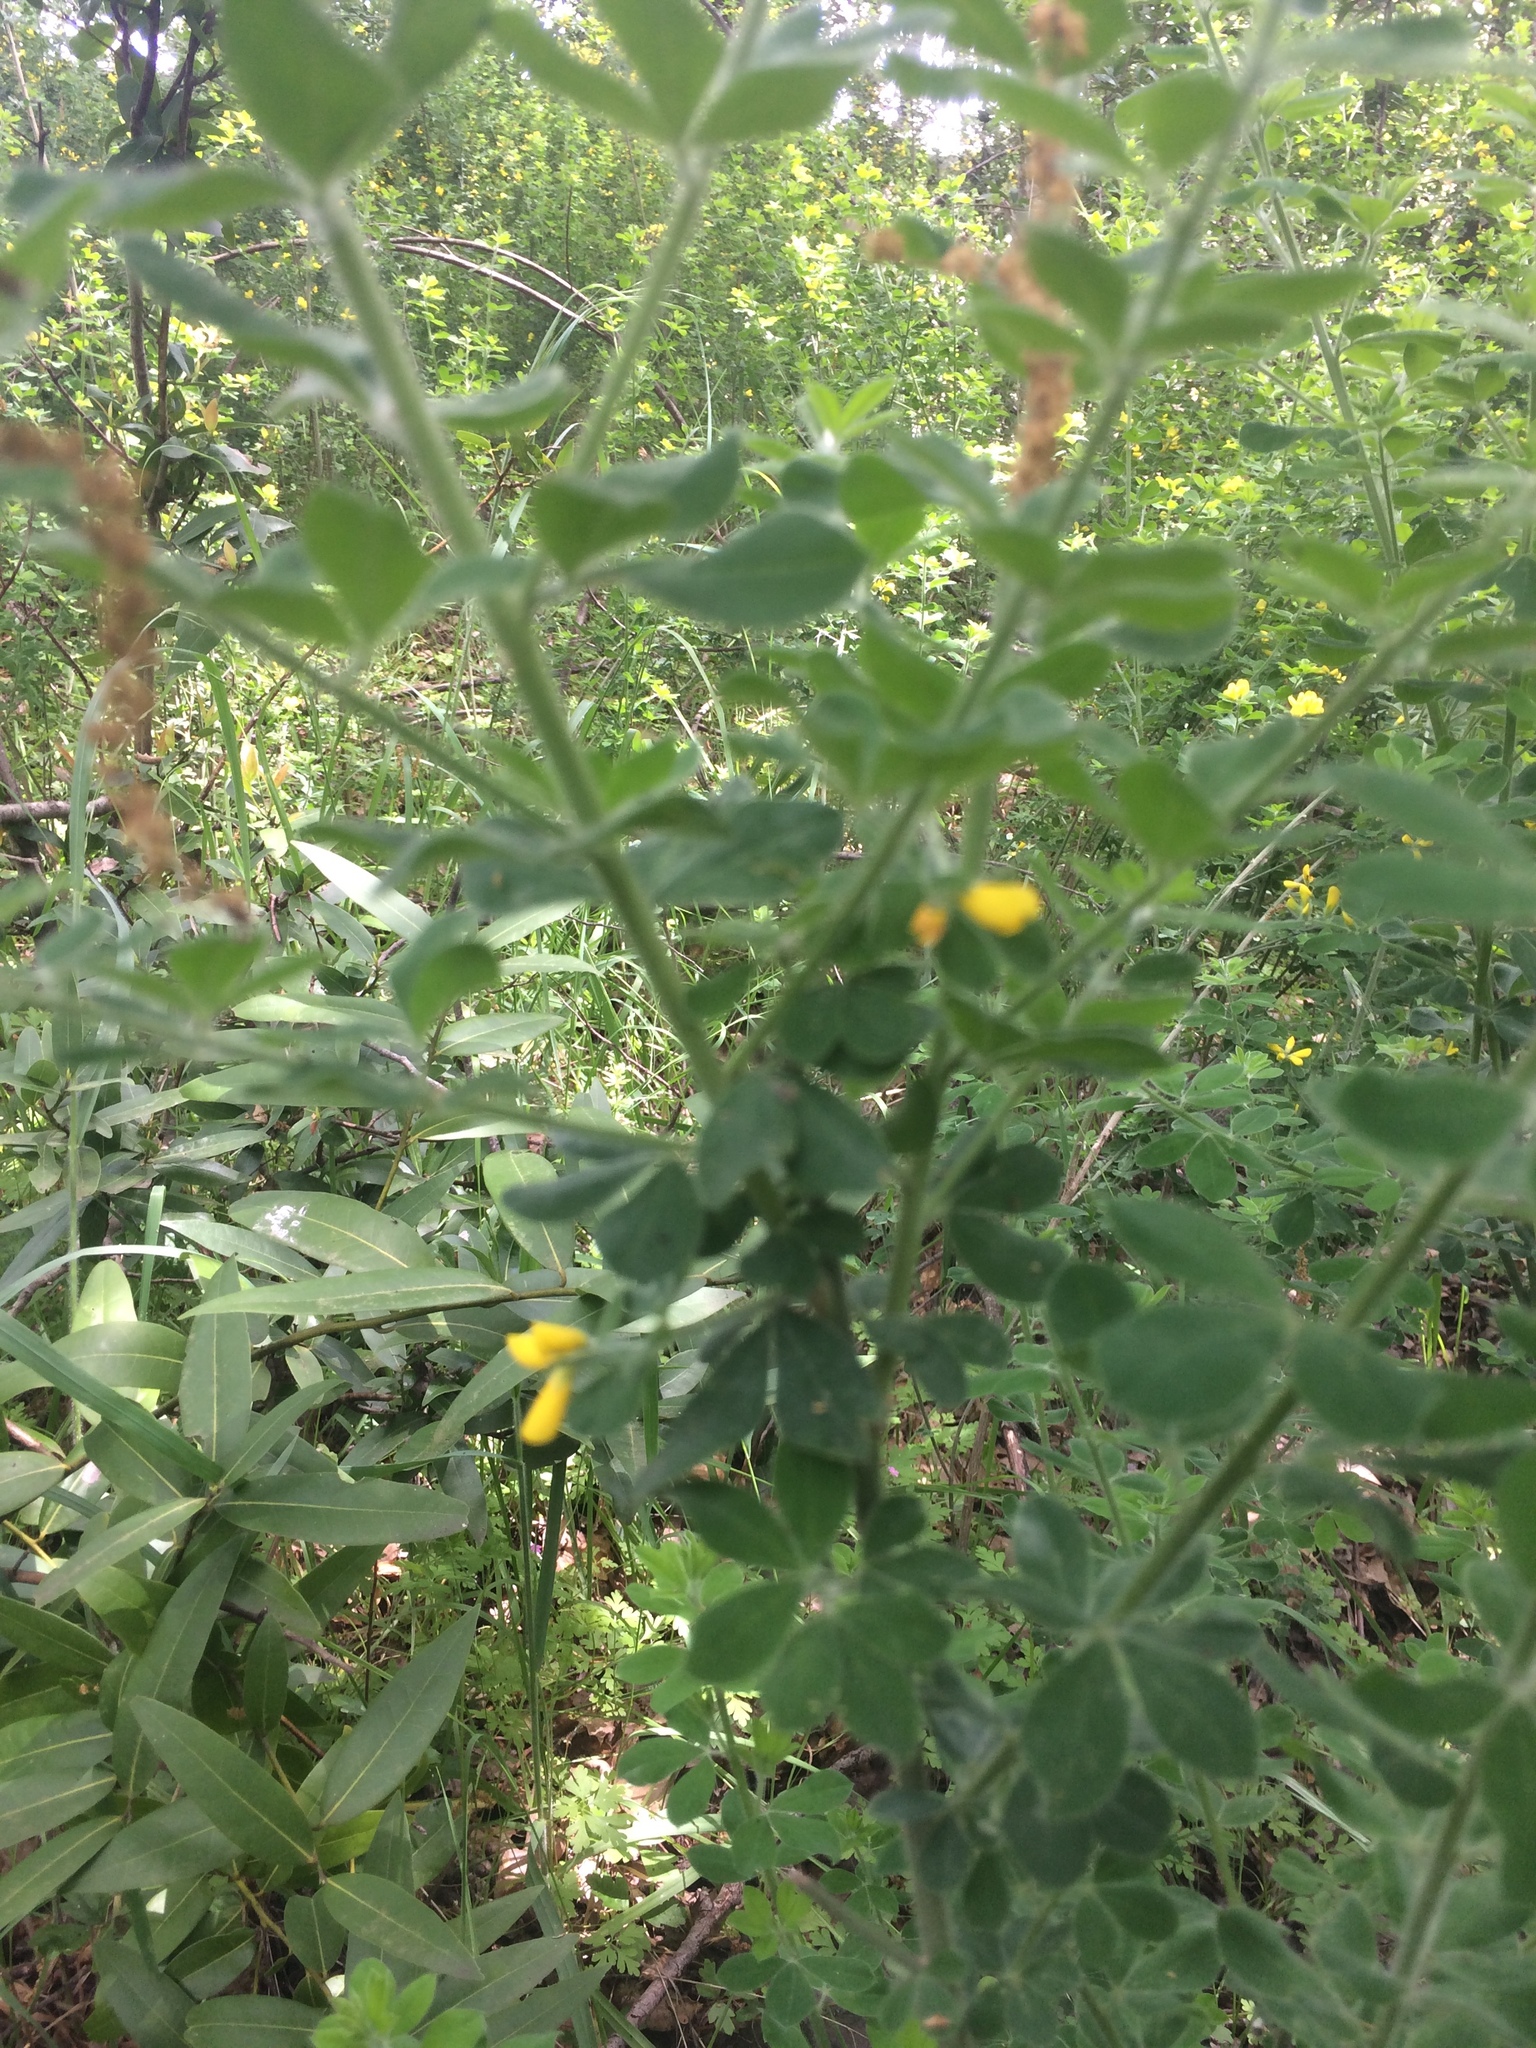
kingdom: Plantae
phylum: Tracheophyta
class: Magnoliopsida
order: Fabales
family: Fabaceae
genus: Genista
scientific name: Genista monspessulana
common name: Montpellier broom
